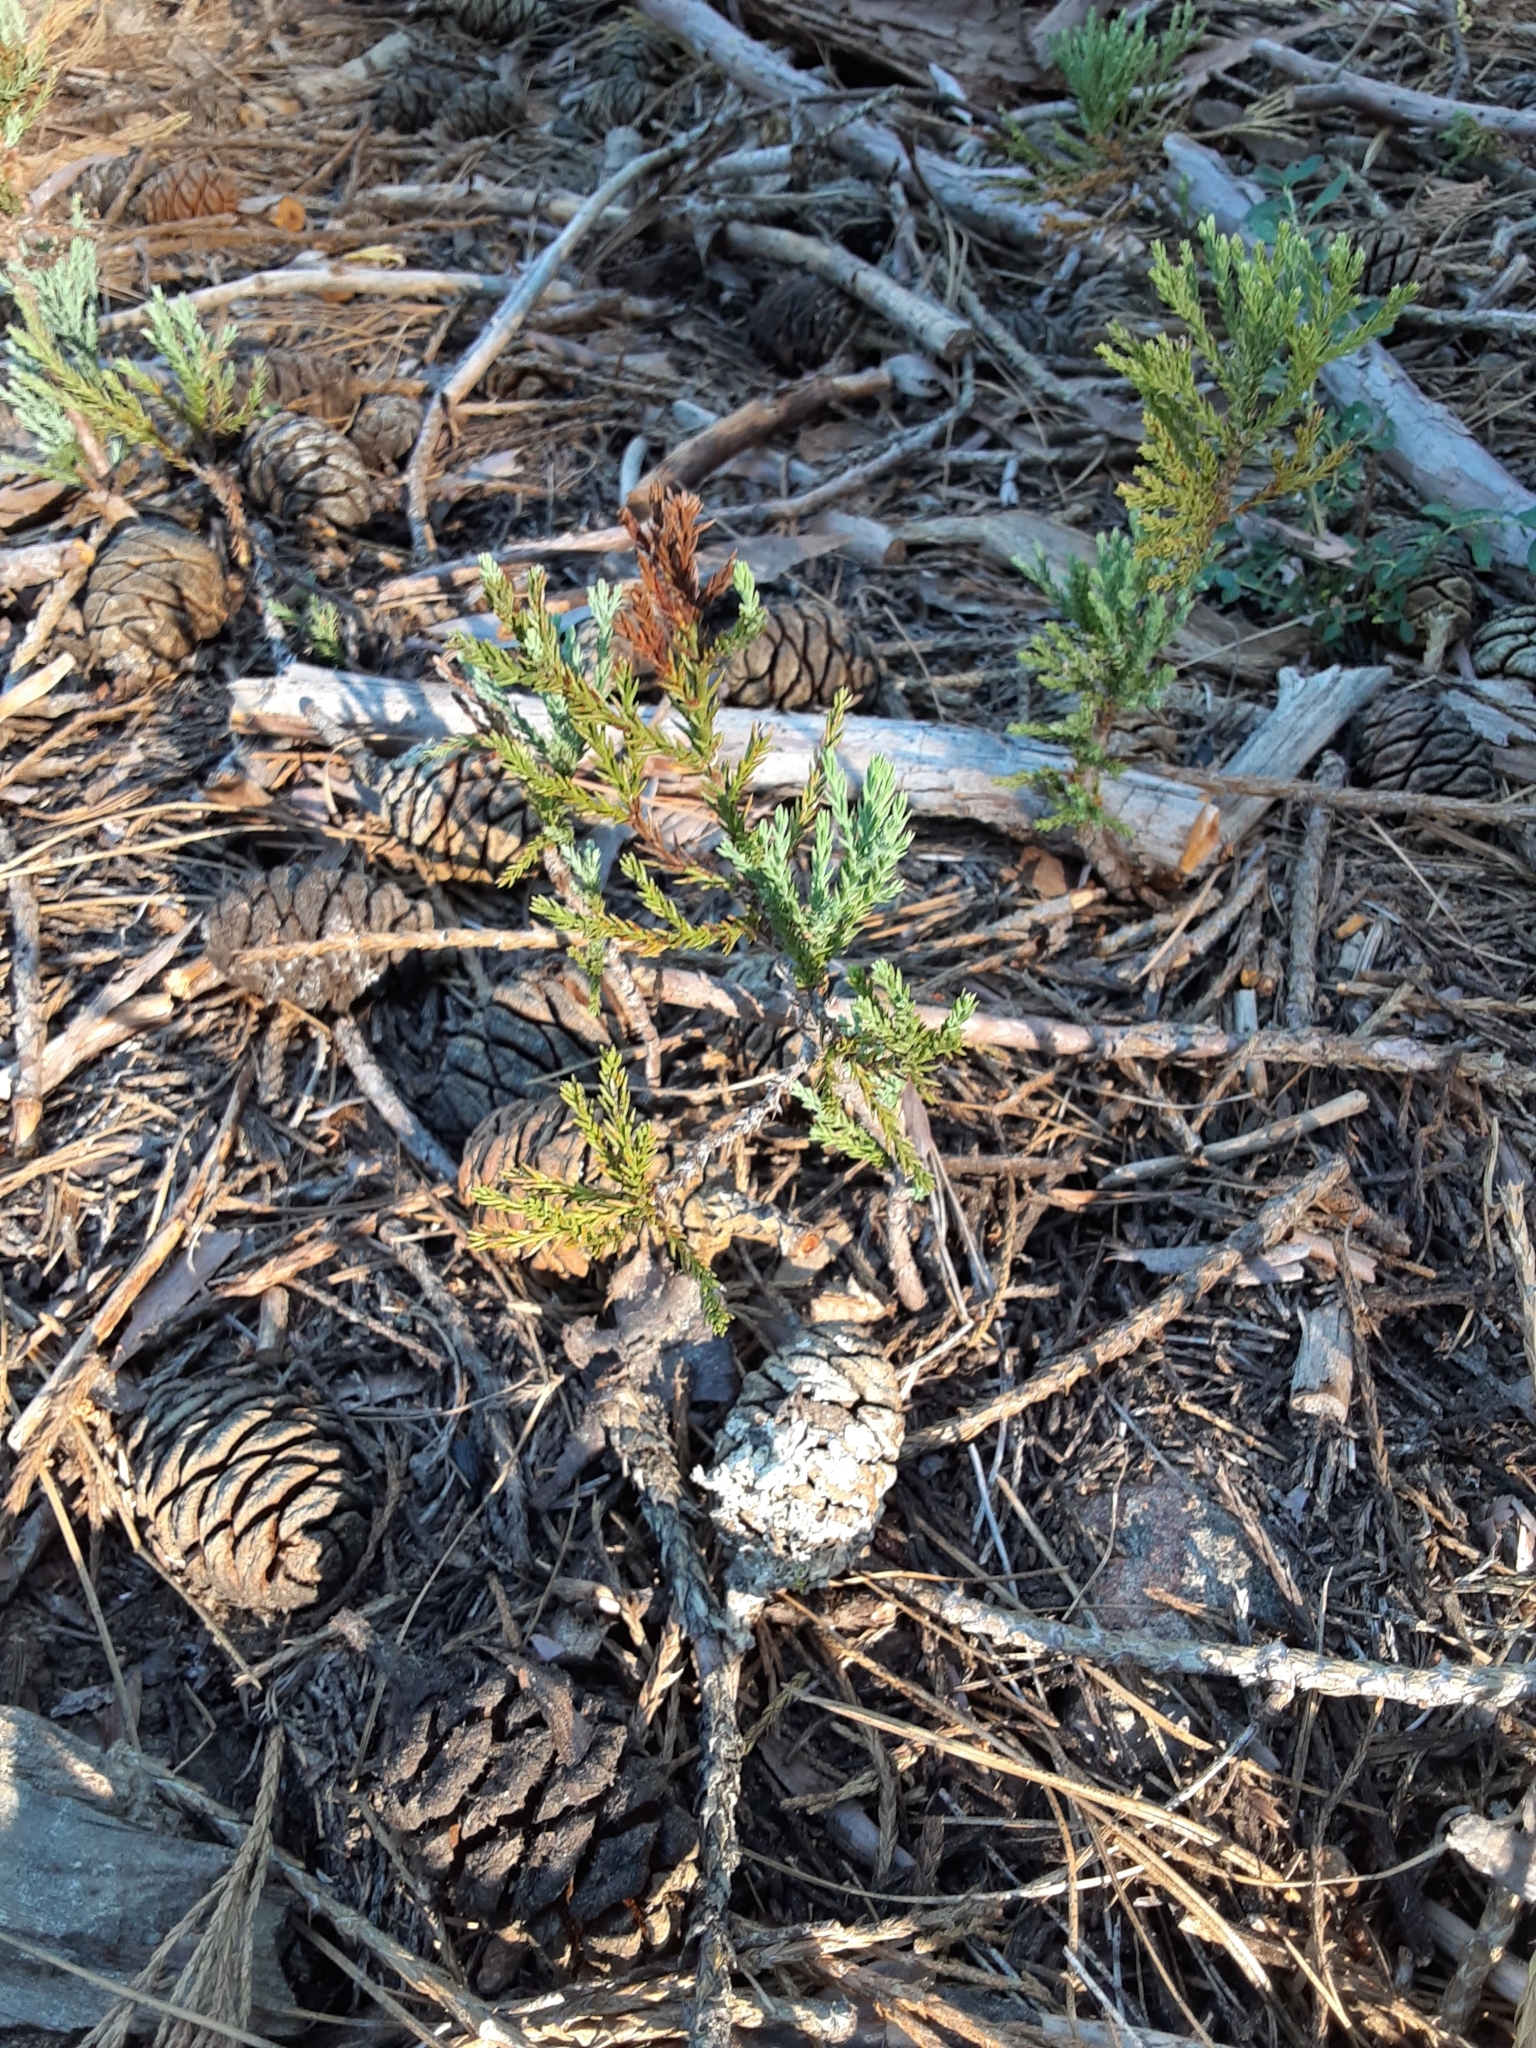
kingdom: Plantae
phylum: Tracheophyta
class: Pinopsida
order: Pinales
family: Cupressaceae
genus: Sequoiadendron
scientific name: Sequoiadendron giganteum
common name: Wellingtonia
